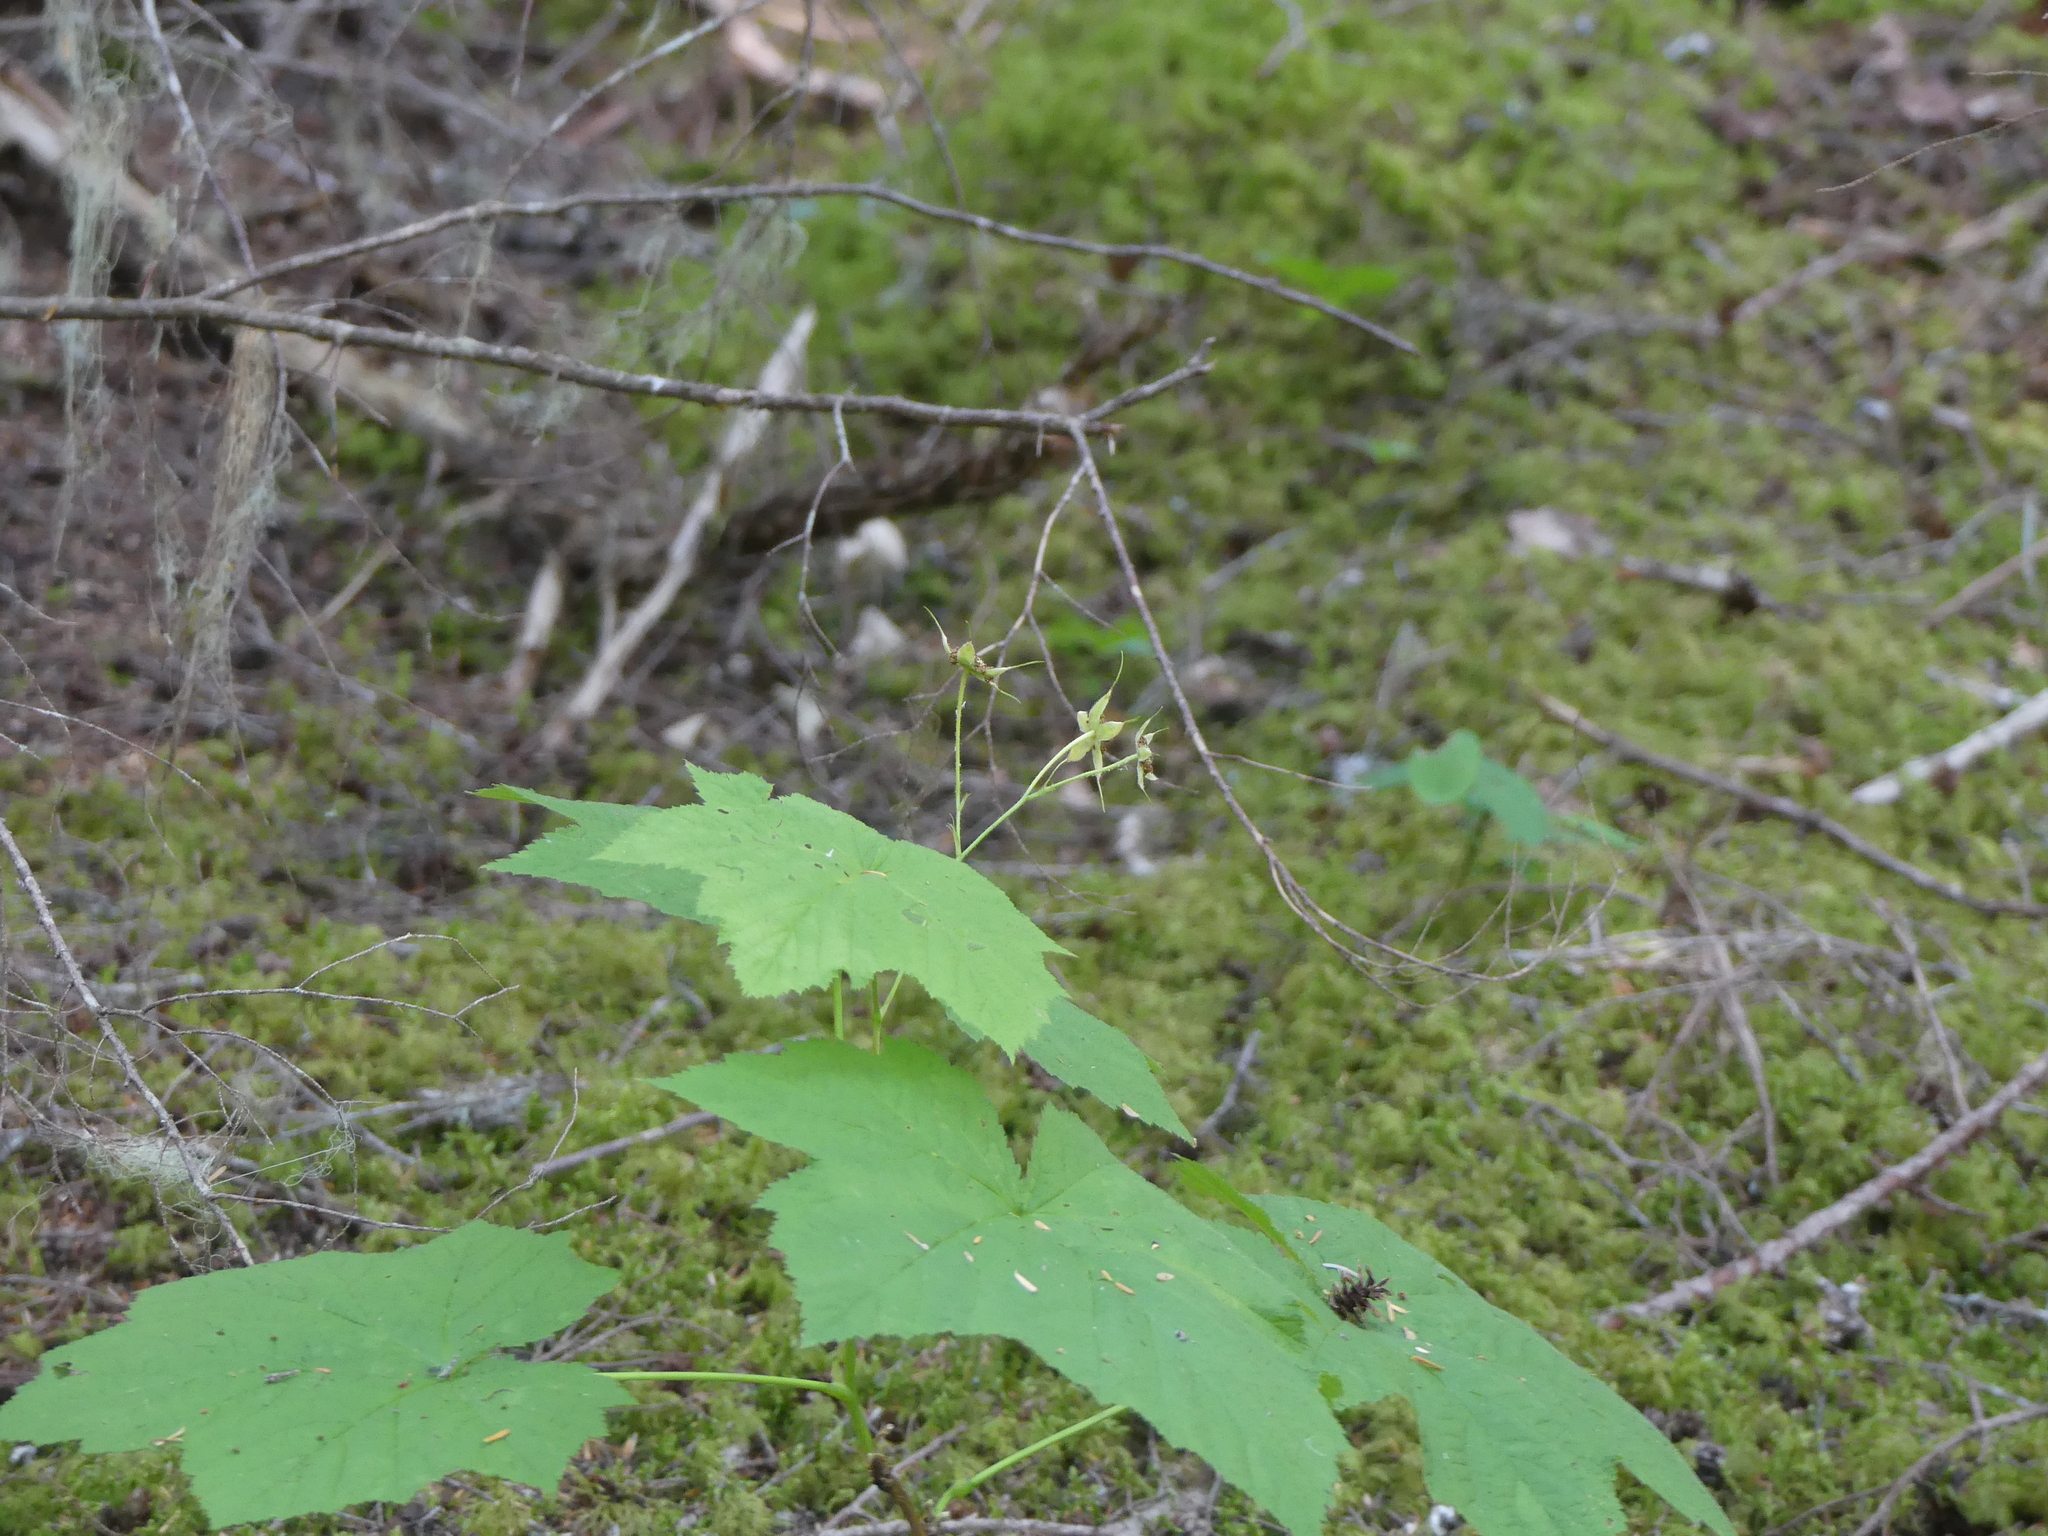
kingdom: Plantae
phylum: Tracheophyta
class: Magnoliopsida
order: Rosales
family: Rosaceae
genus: Rubus
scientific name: Rubus parviflorus
